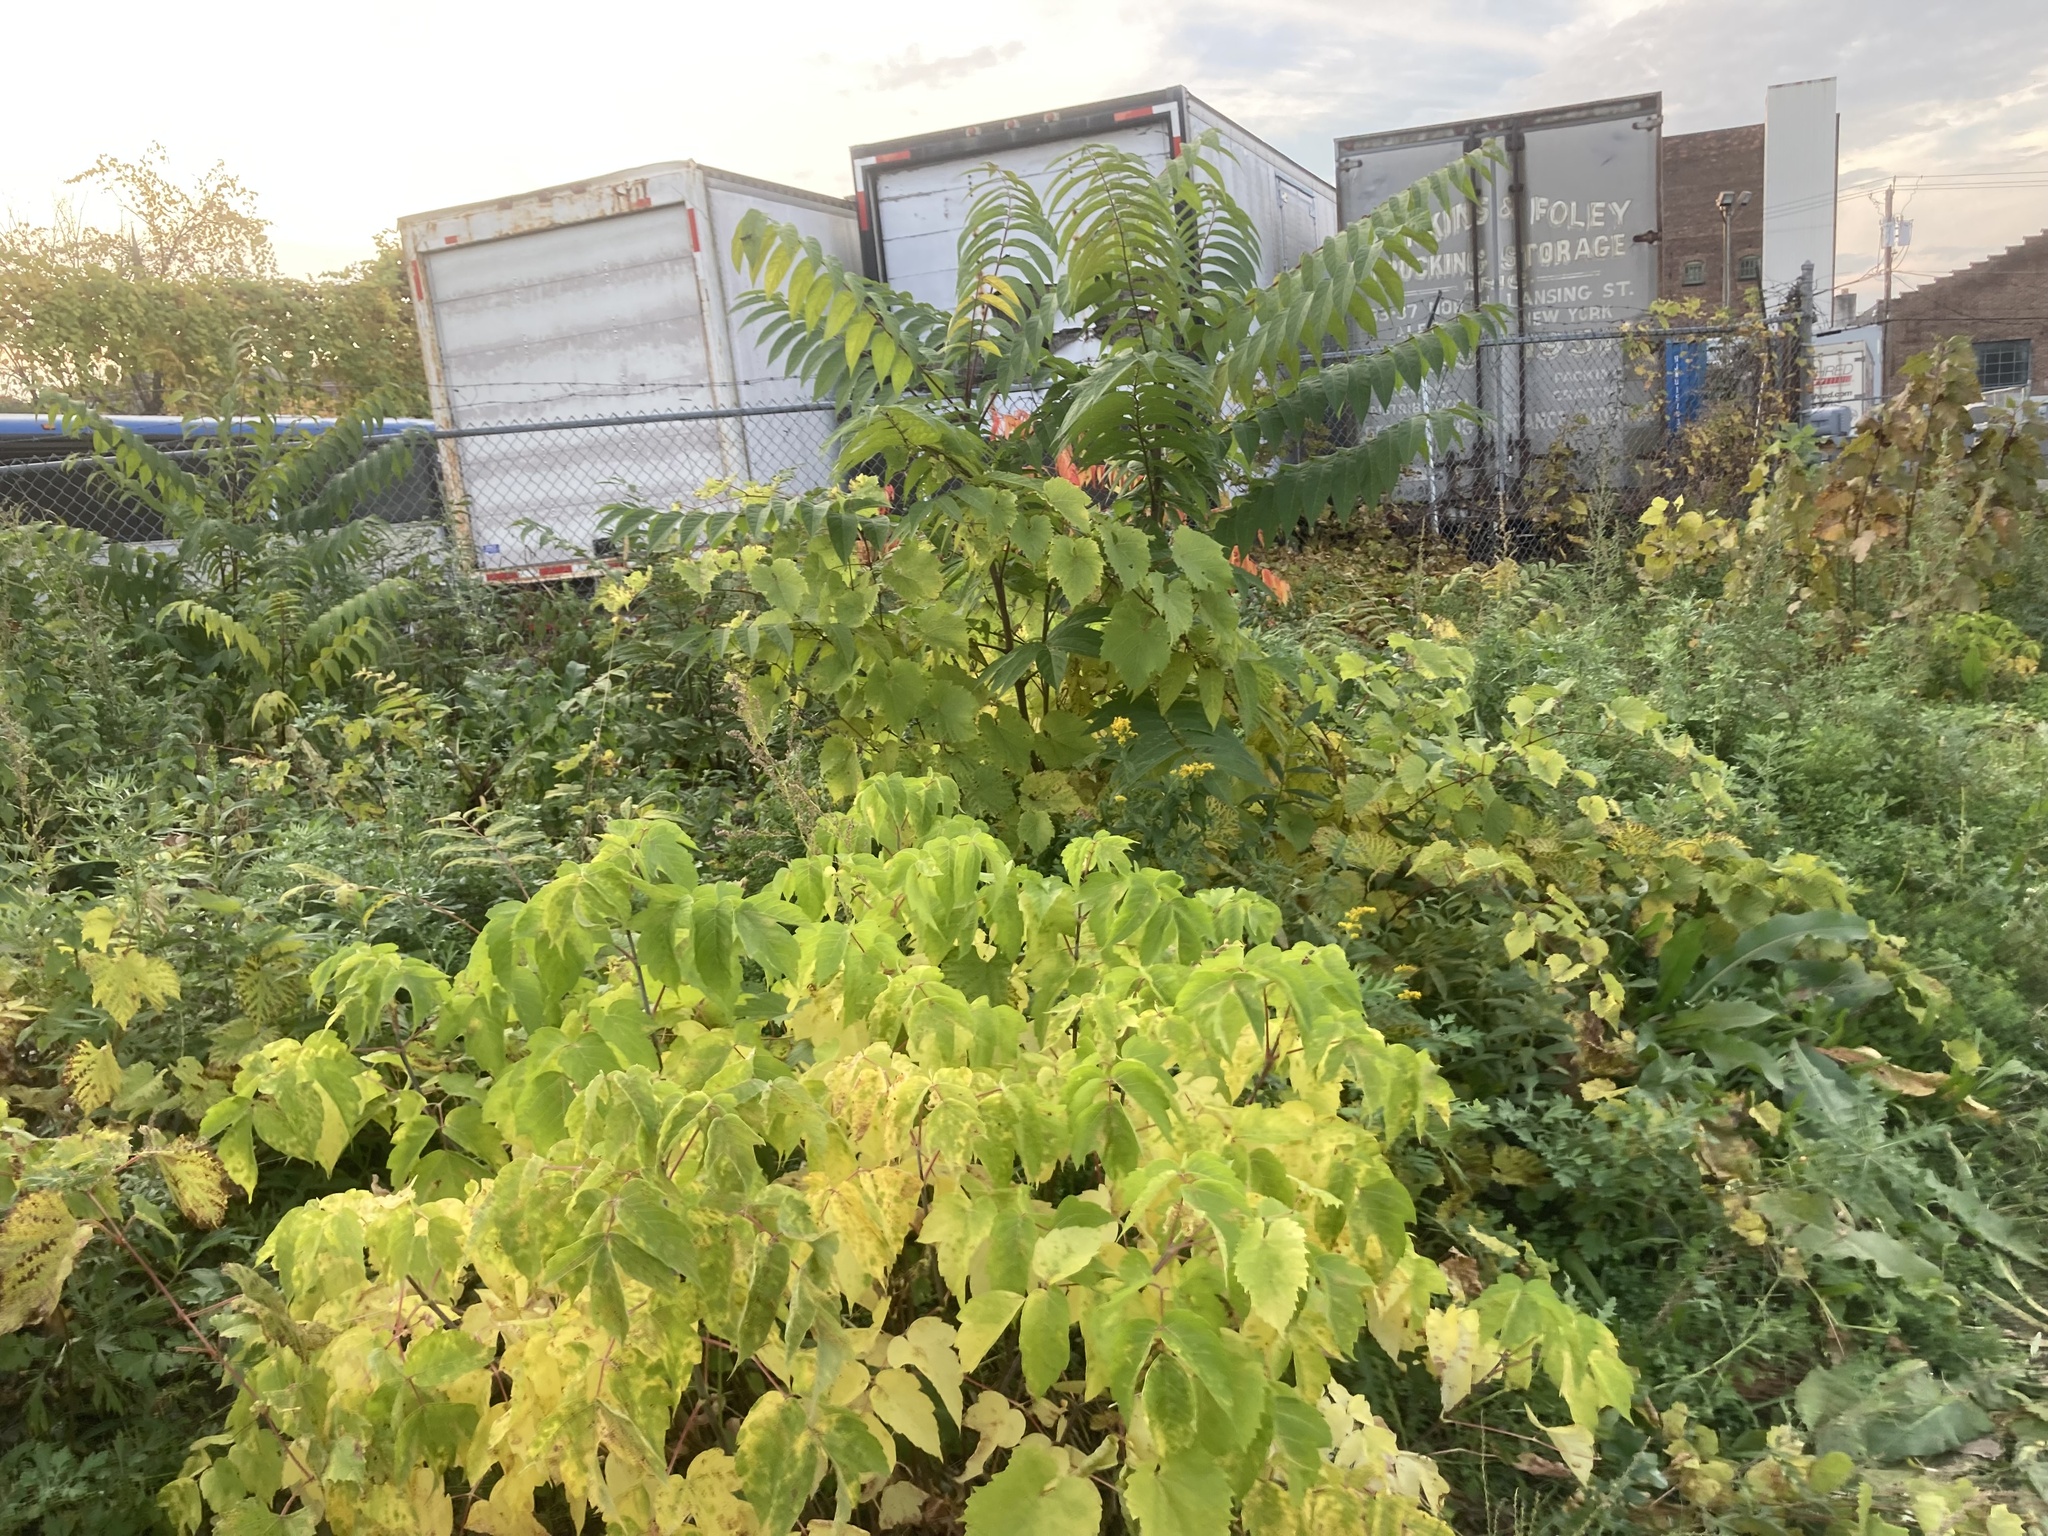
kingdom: Plantae
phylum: Tracheophyta
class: Magnoliopsida
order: Sapindales
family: Sapindaceae
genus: Acer
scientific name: Acer negundo
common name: Ashleaf maple
